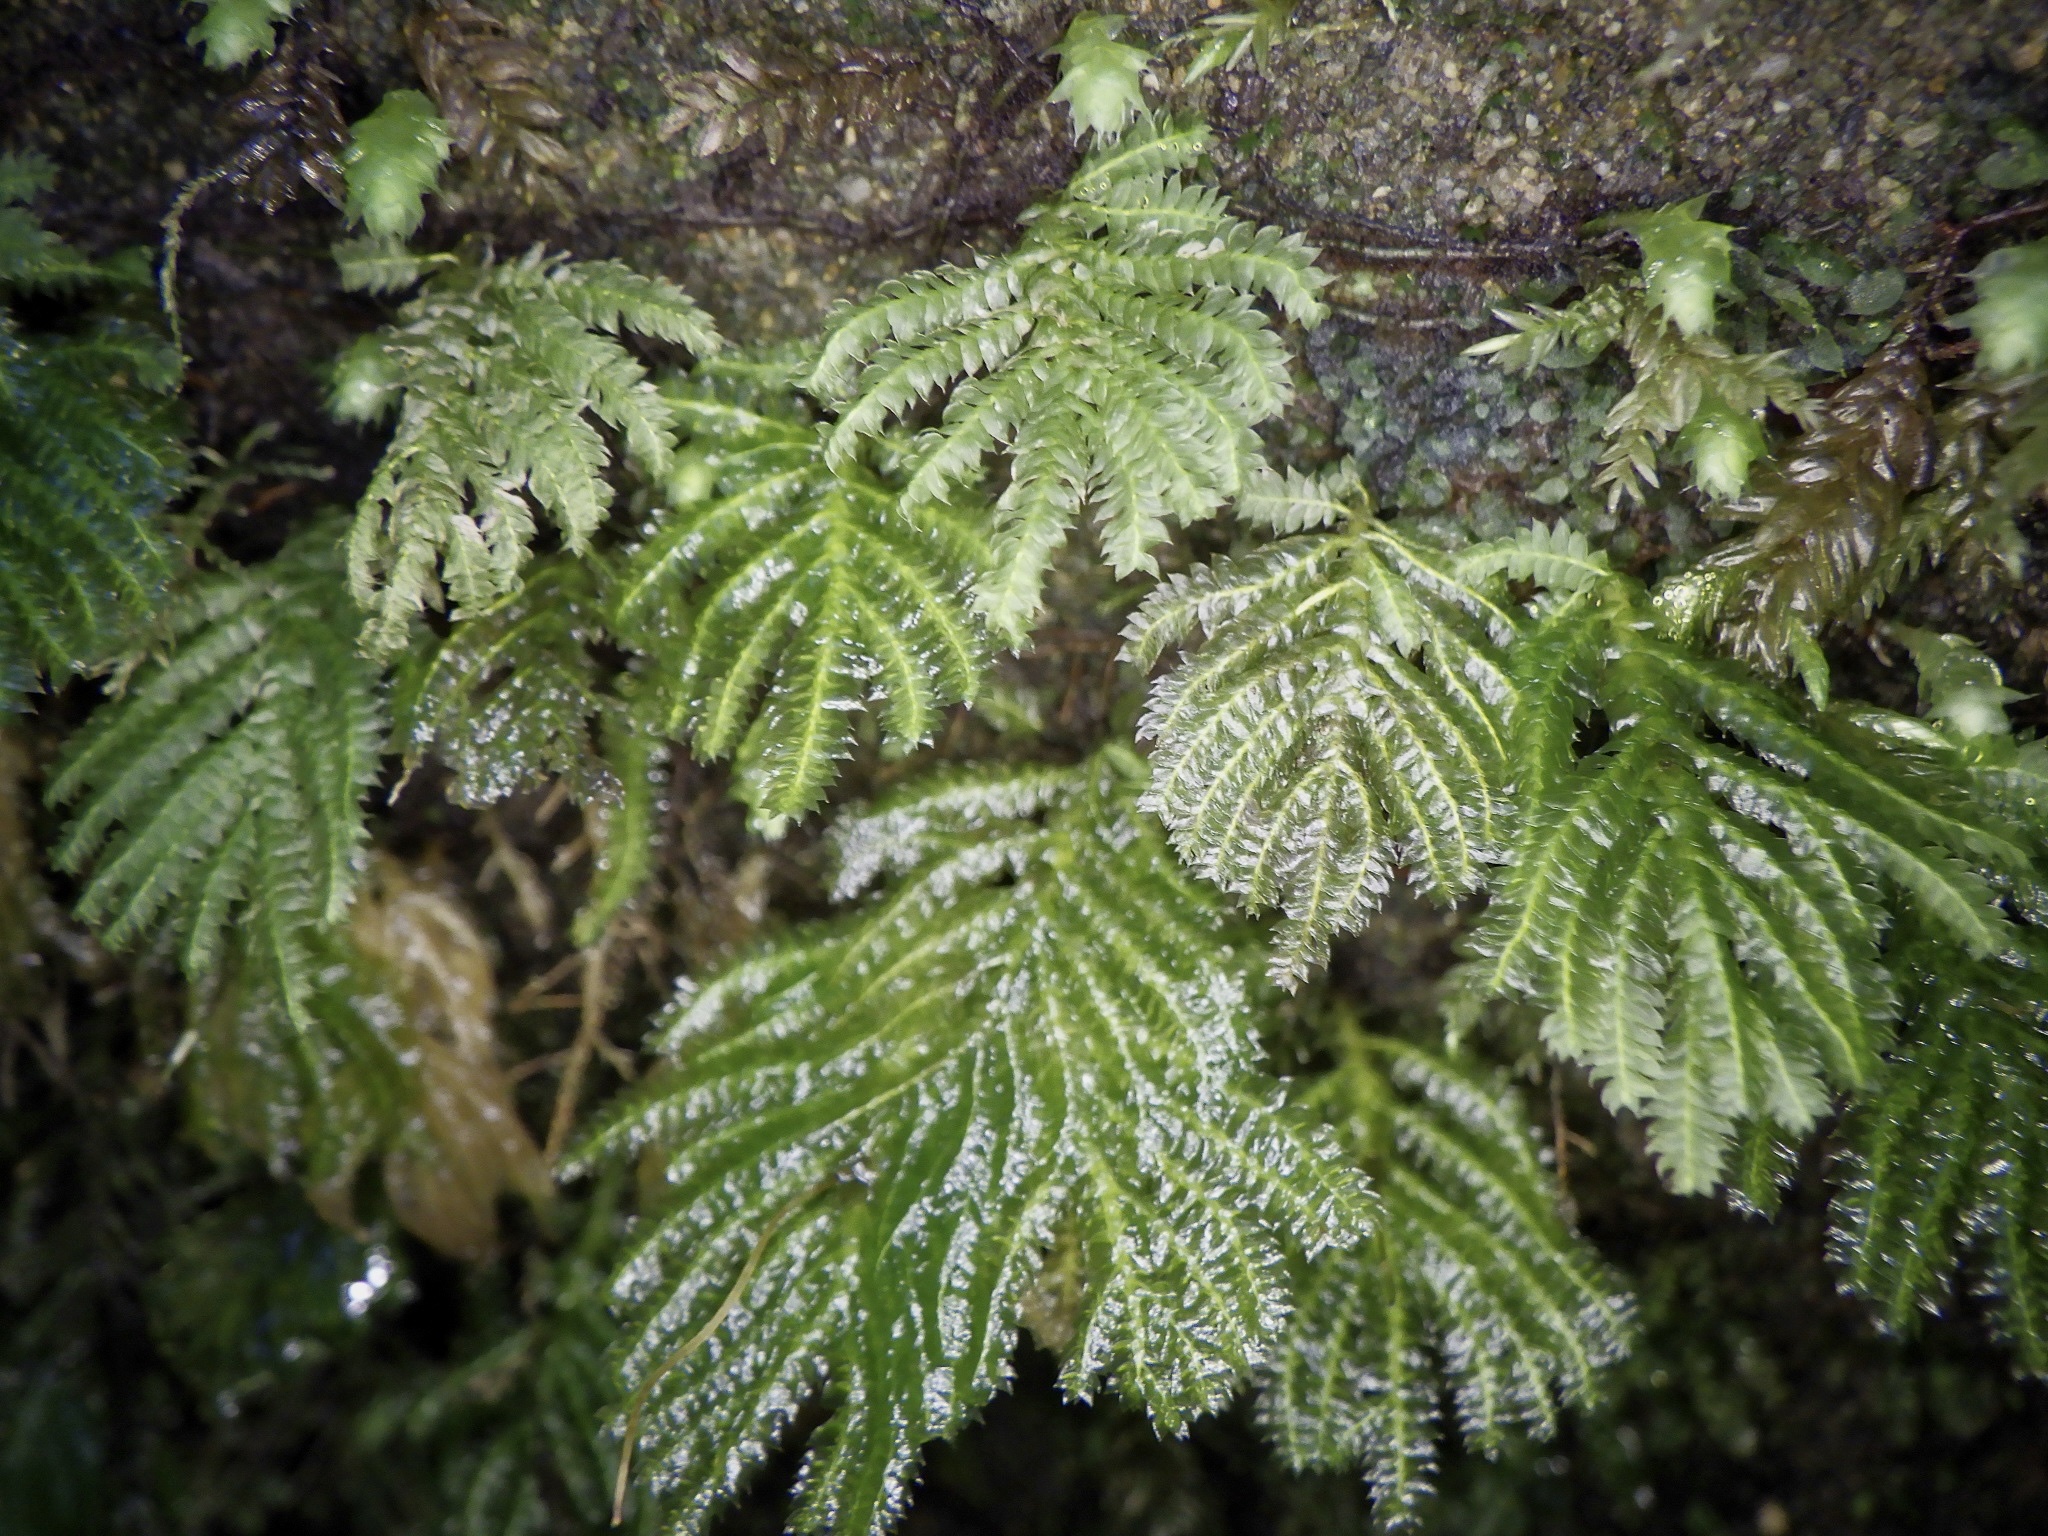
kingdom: Plantae
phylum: Bryophyta
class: Bryopsida
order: Hypopterygiales
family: Hypopterygiaceae
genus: Hypopterygium
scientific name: Hypopterygium flavolimbatum
